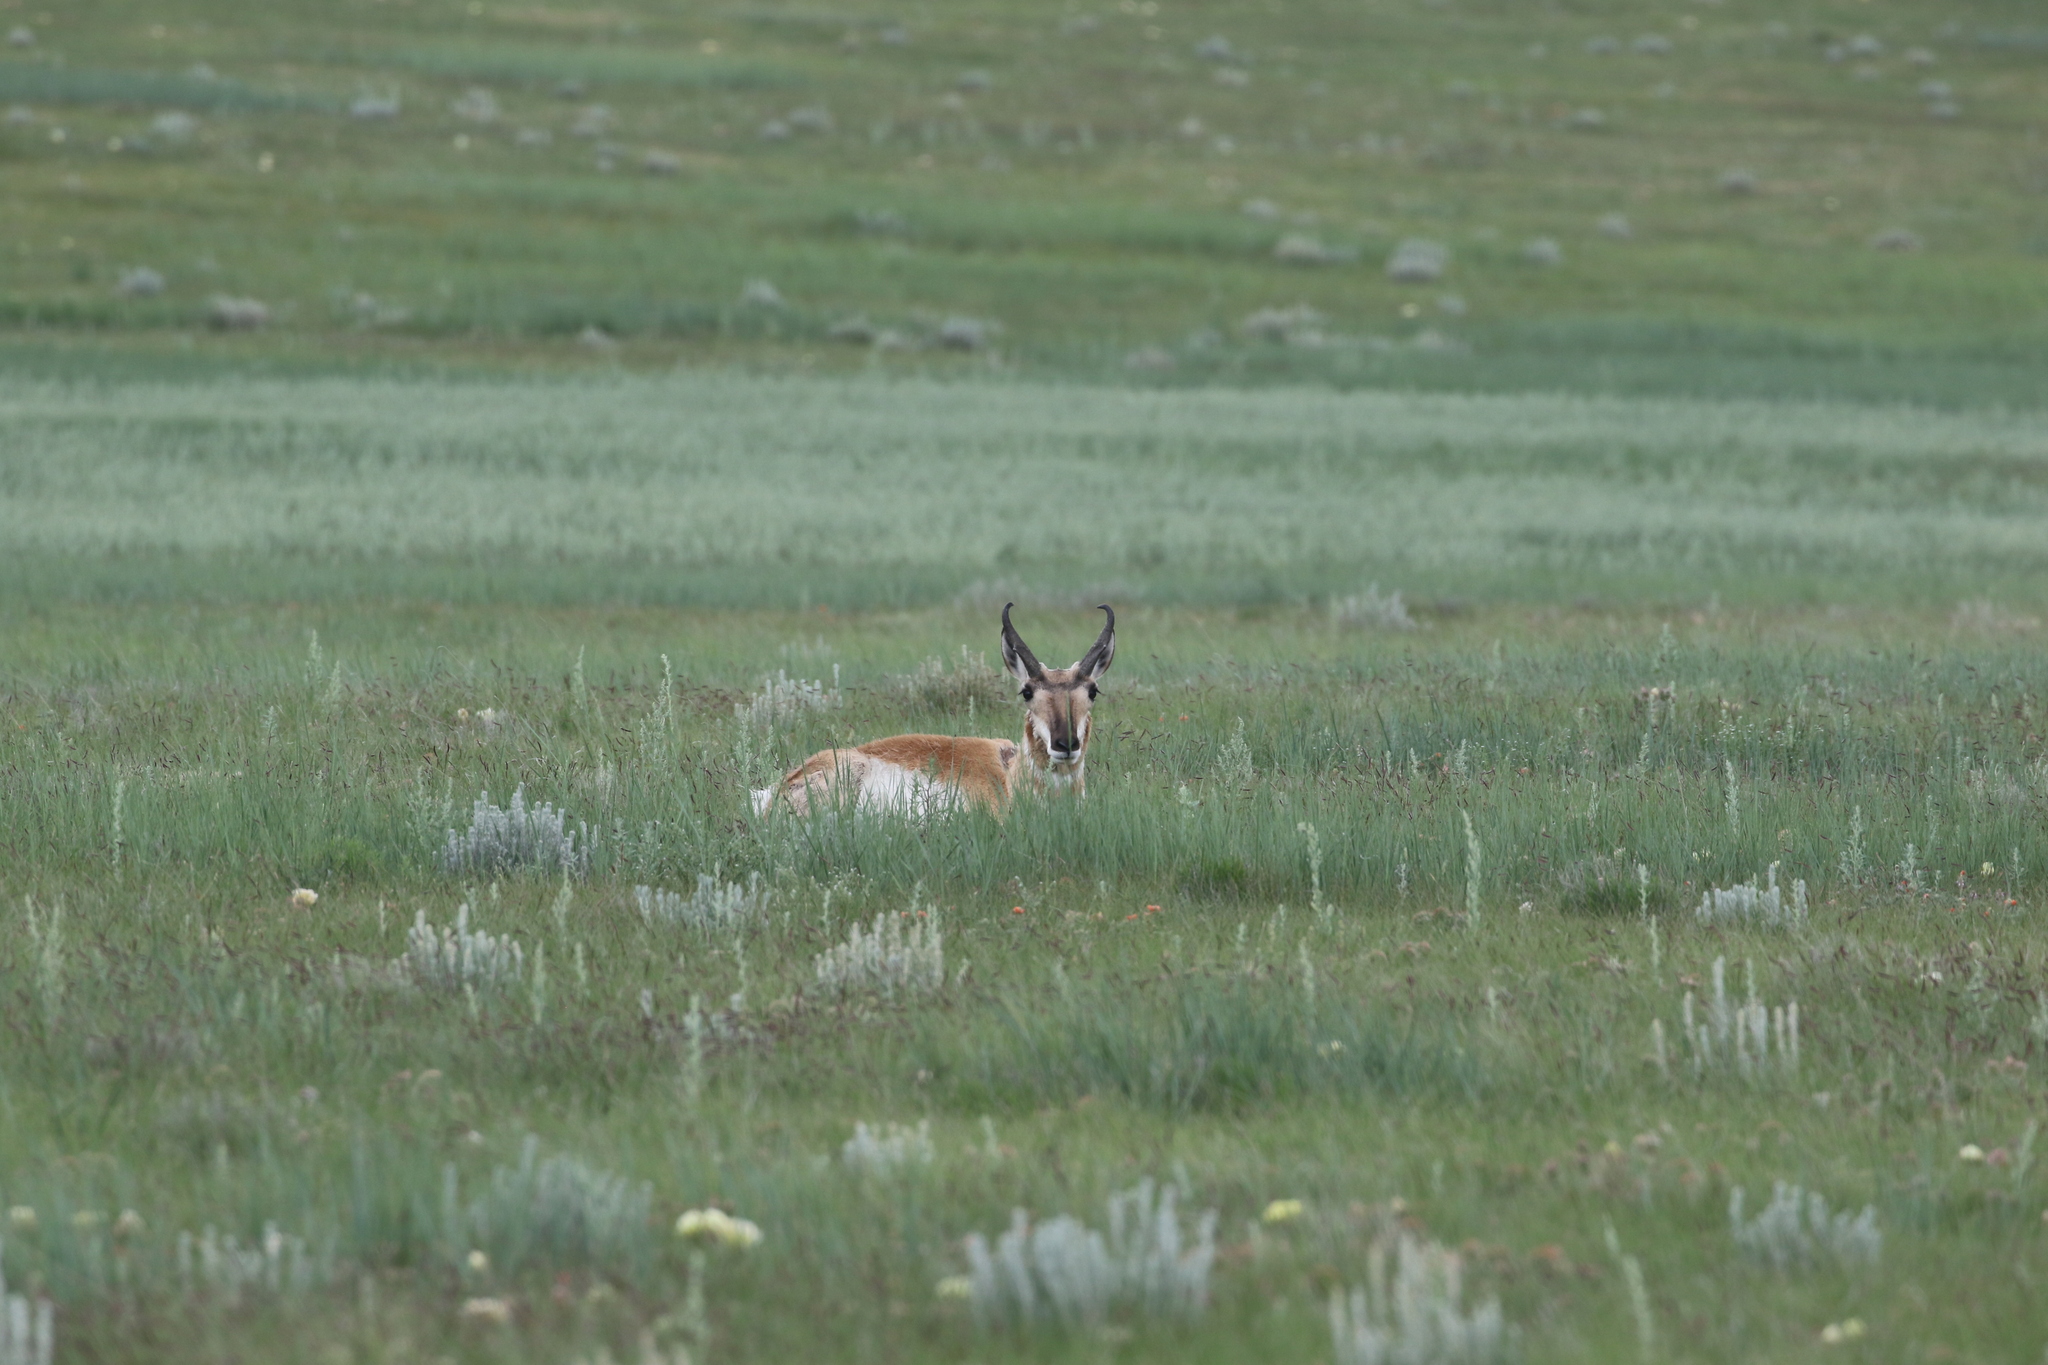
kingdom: Animalia
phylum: Chordata
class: Mammalia
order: Artiodactyla
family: Antilocapridae
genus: Antilocapra
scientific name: Antilocapra americana
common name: Pronghorn
